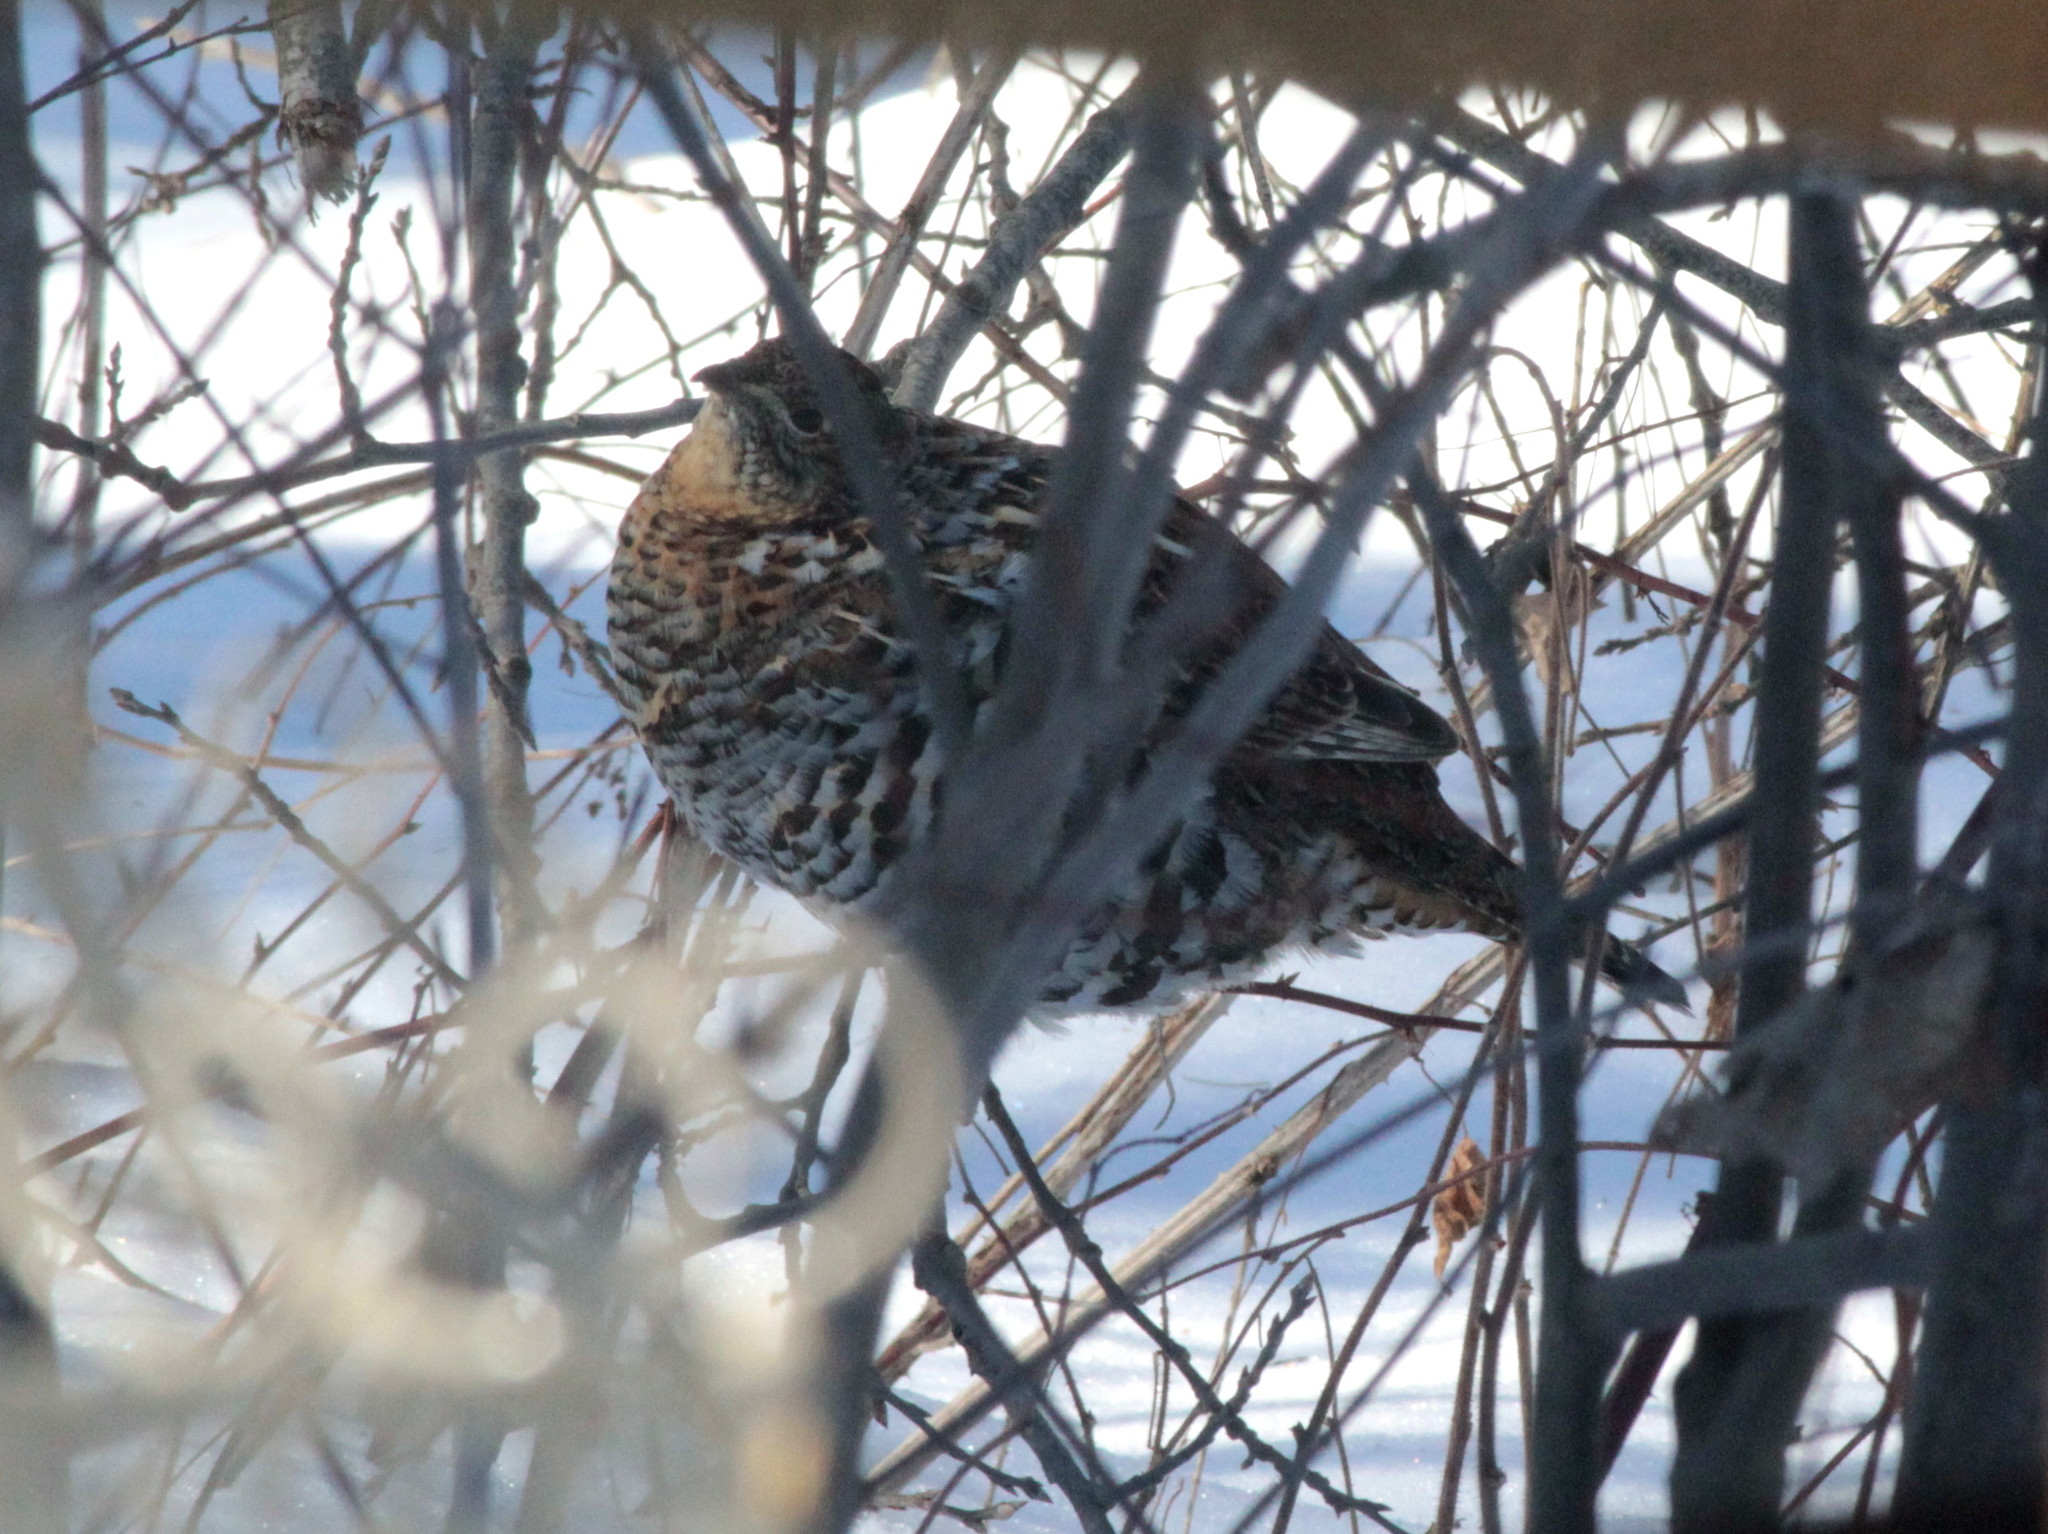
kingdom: Animalia
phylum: Chordata
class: Aves
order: Galliformes
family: Phasianidae
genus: Bonasa
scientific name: Bonasa umbellus
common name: Ruffed grouse
